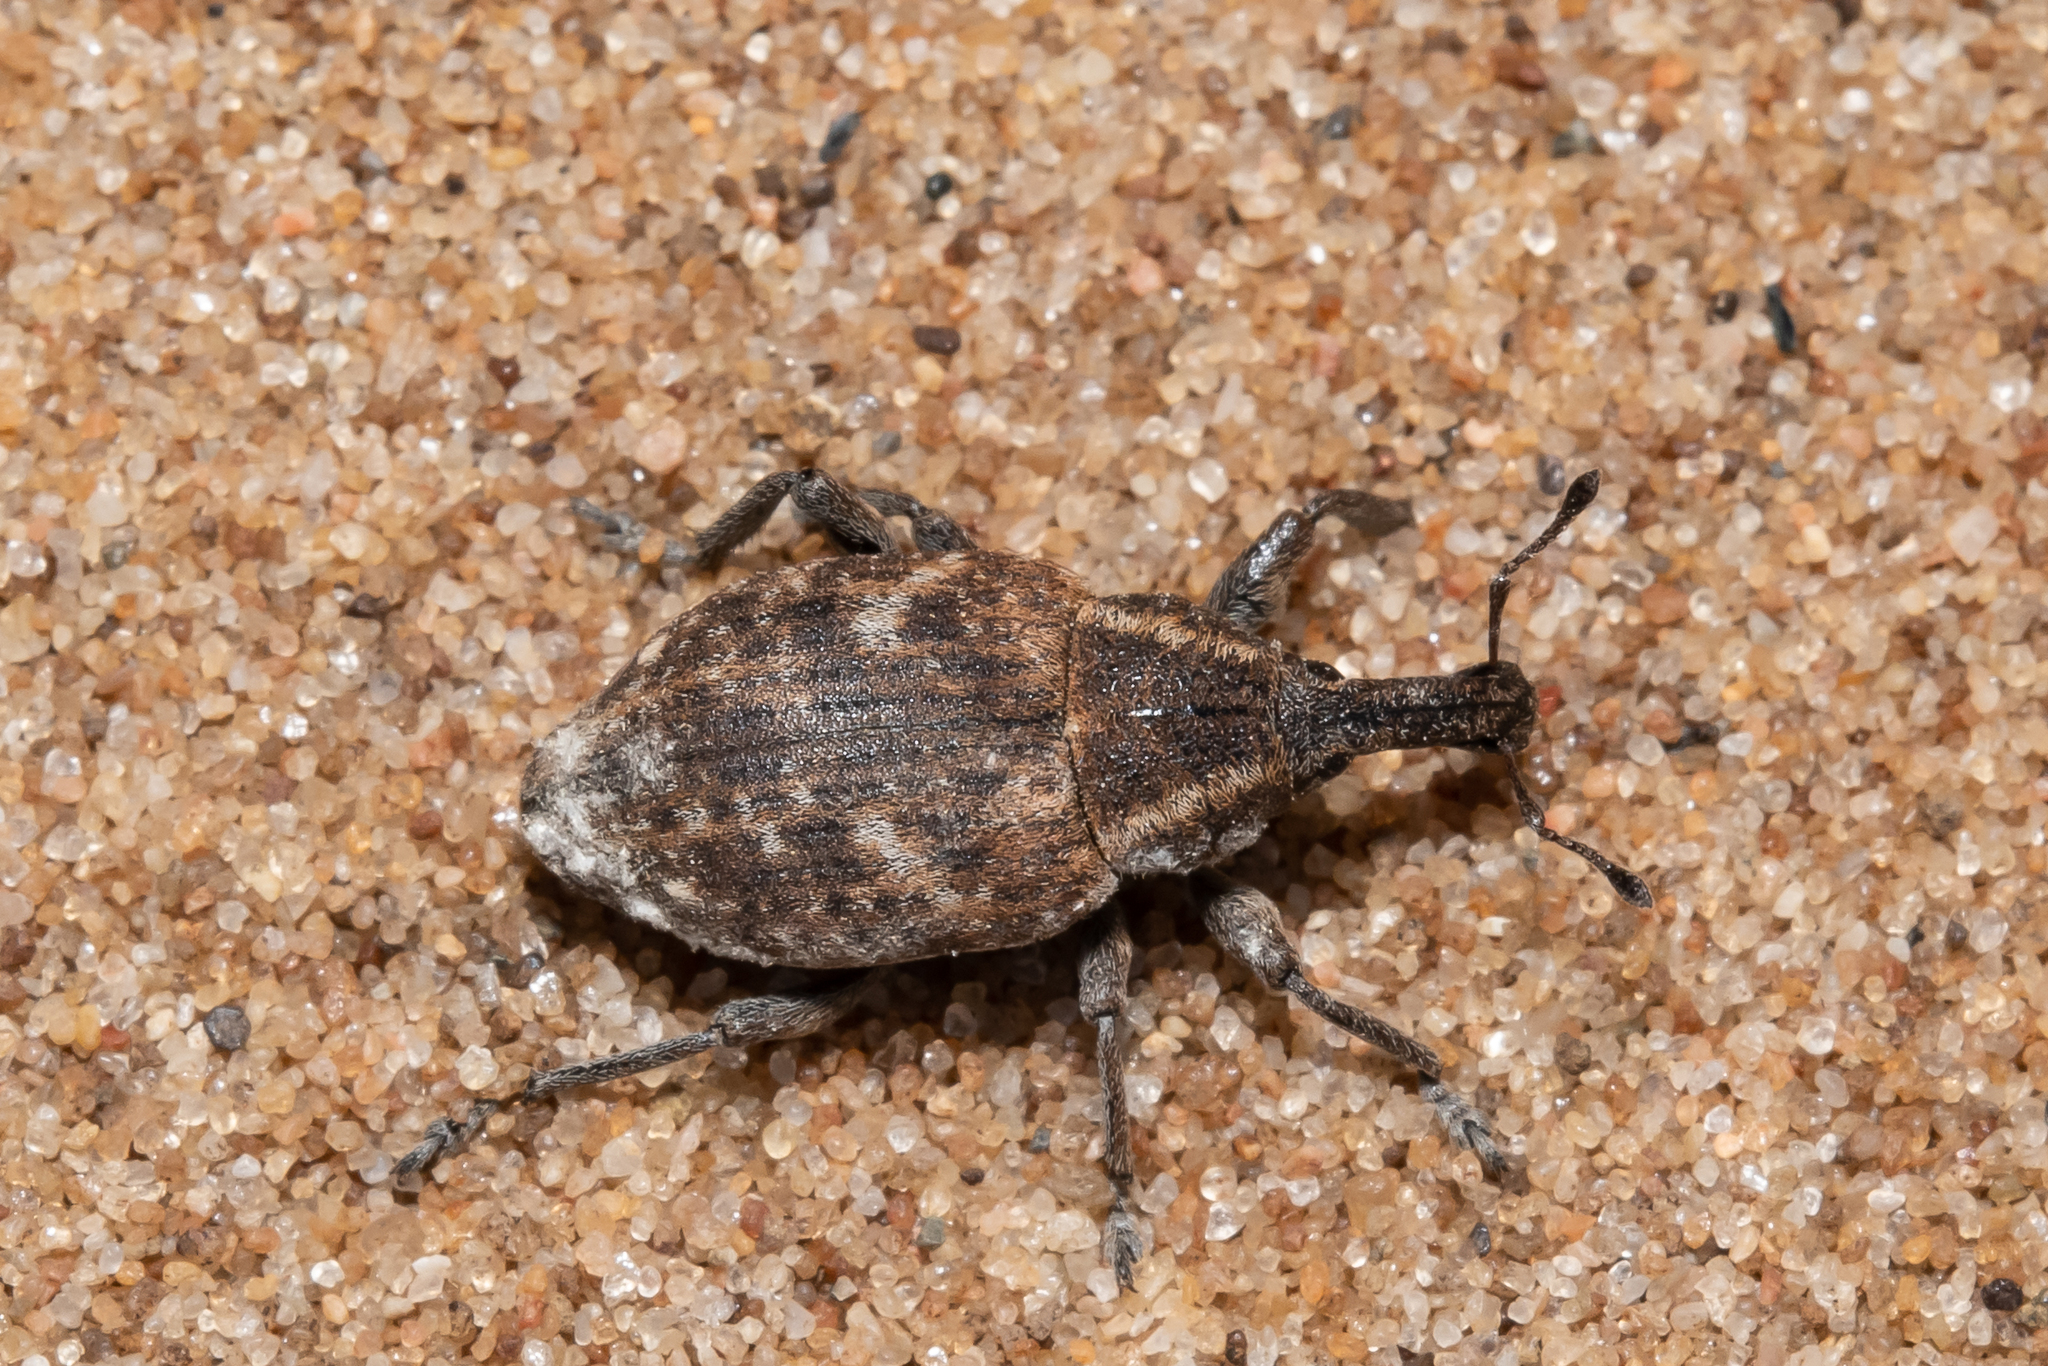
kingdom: Animalia
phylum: Arthropoda
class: Insecta
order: Coleoptera
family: Curculionidae
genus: Lepyrus
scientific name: Lepyrus capucinus
